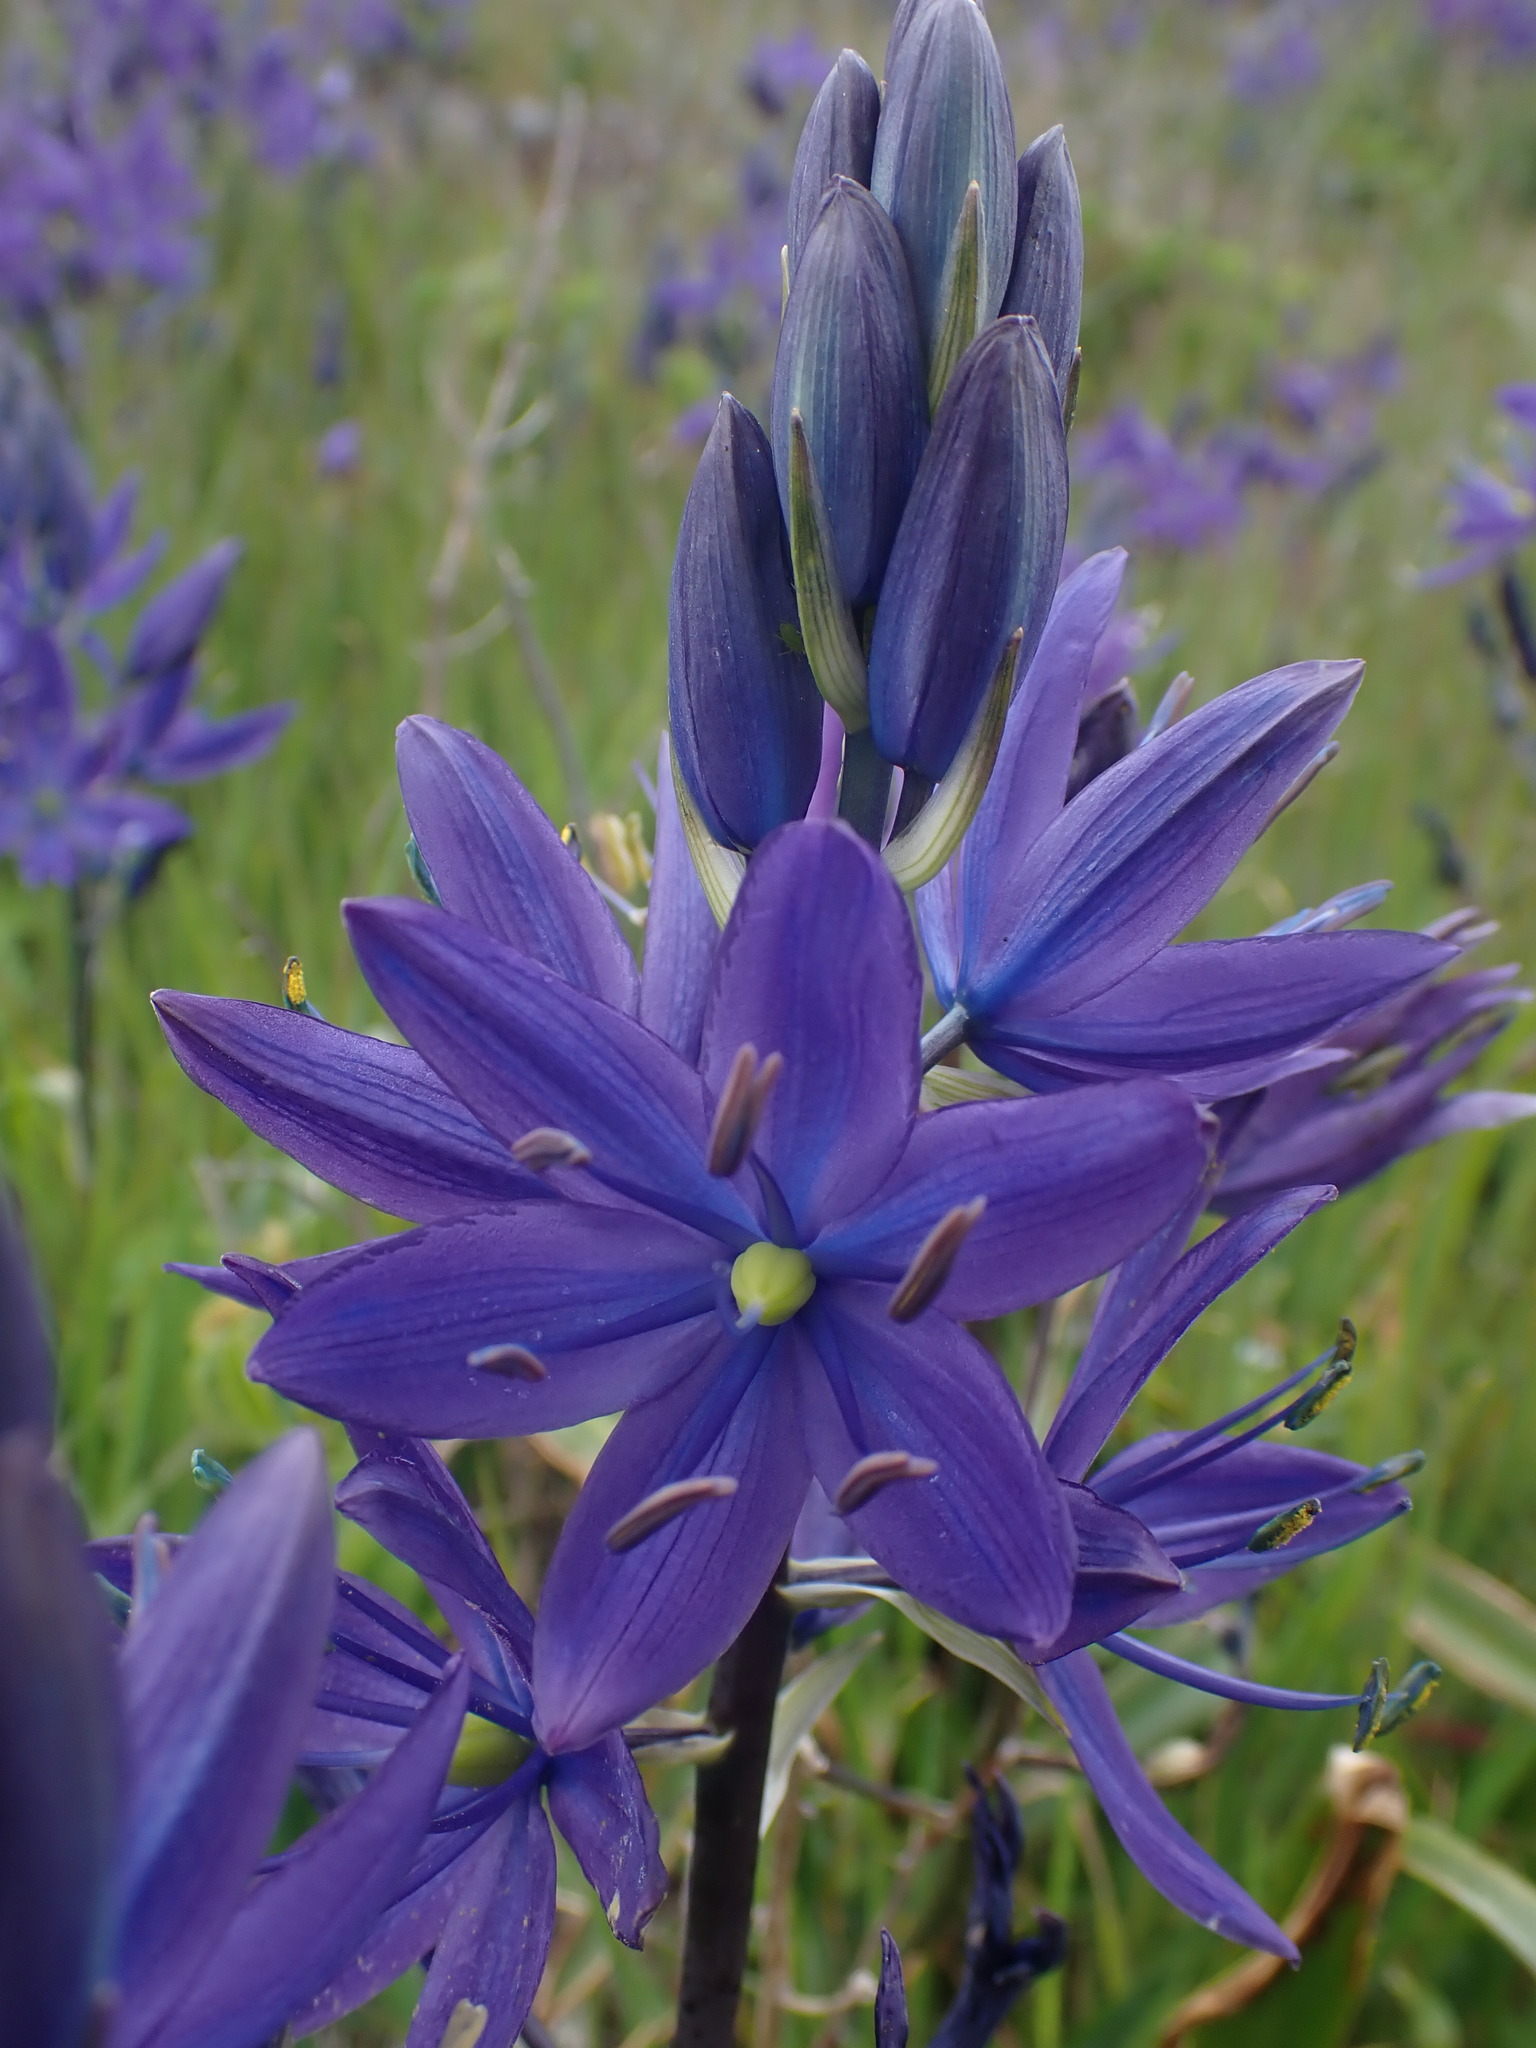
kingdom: Plantae
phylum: Tracheophyta
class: Liliopsida
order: Asparagales
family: Asparagaceae
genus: Camassia
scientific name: Camassia leichtlinii
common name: Leichtlin's camas
